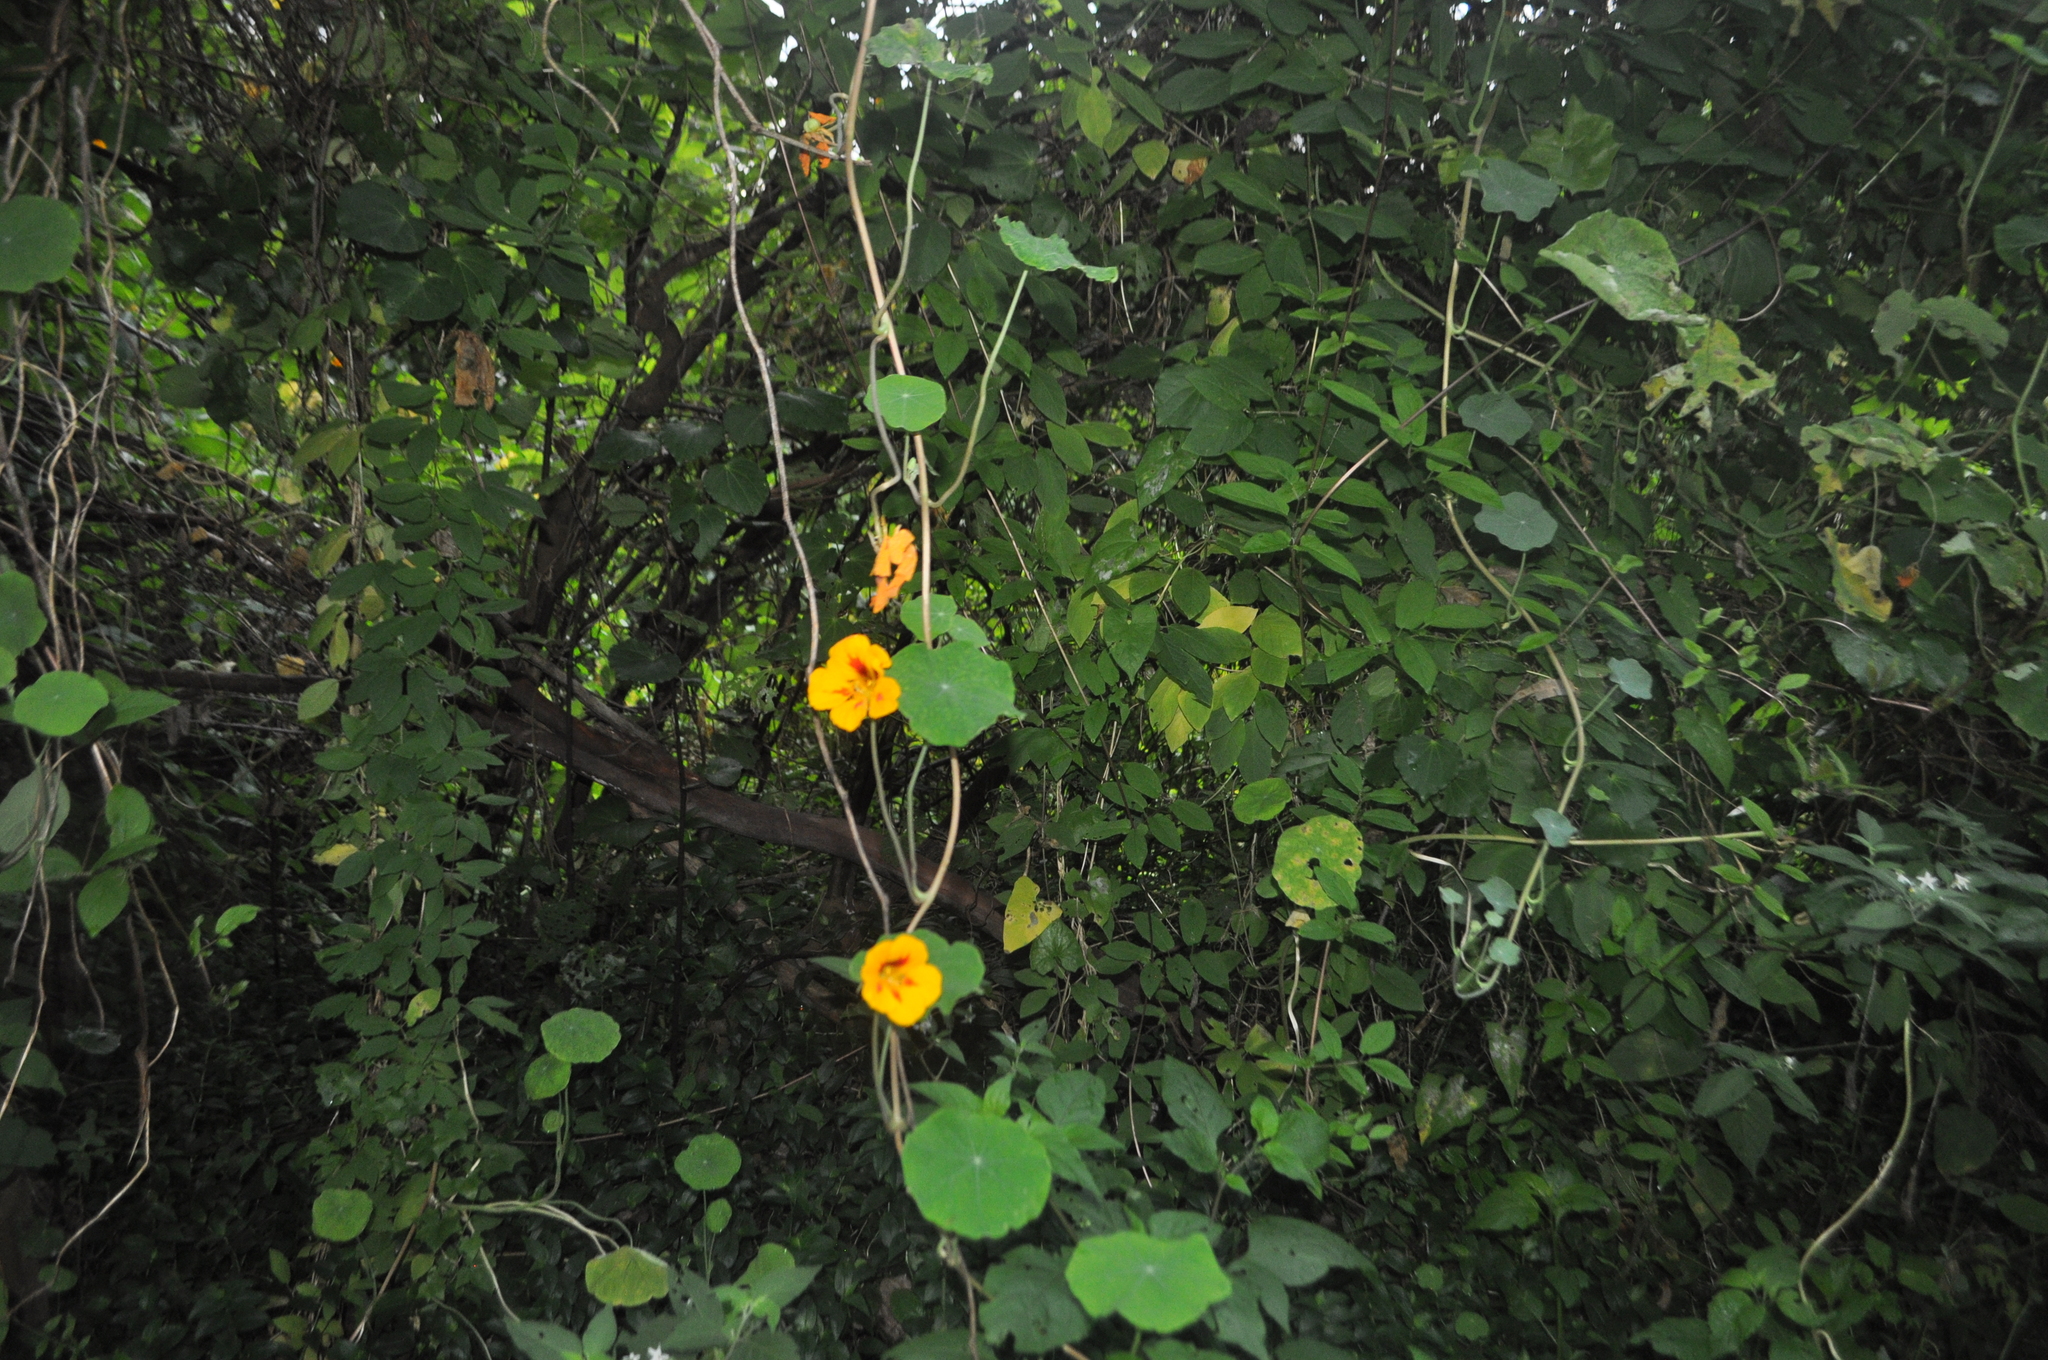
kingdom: Plantae
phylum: Tracheophyta
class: Magnoliopsida
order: Brassicales
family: Tropaeolaceae
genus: Tropaeolum
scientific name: Tropaeolum majus
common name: Nasturtium
